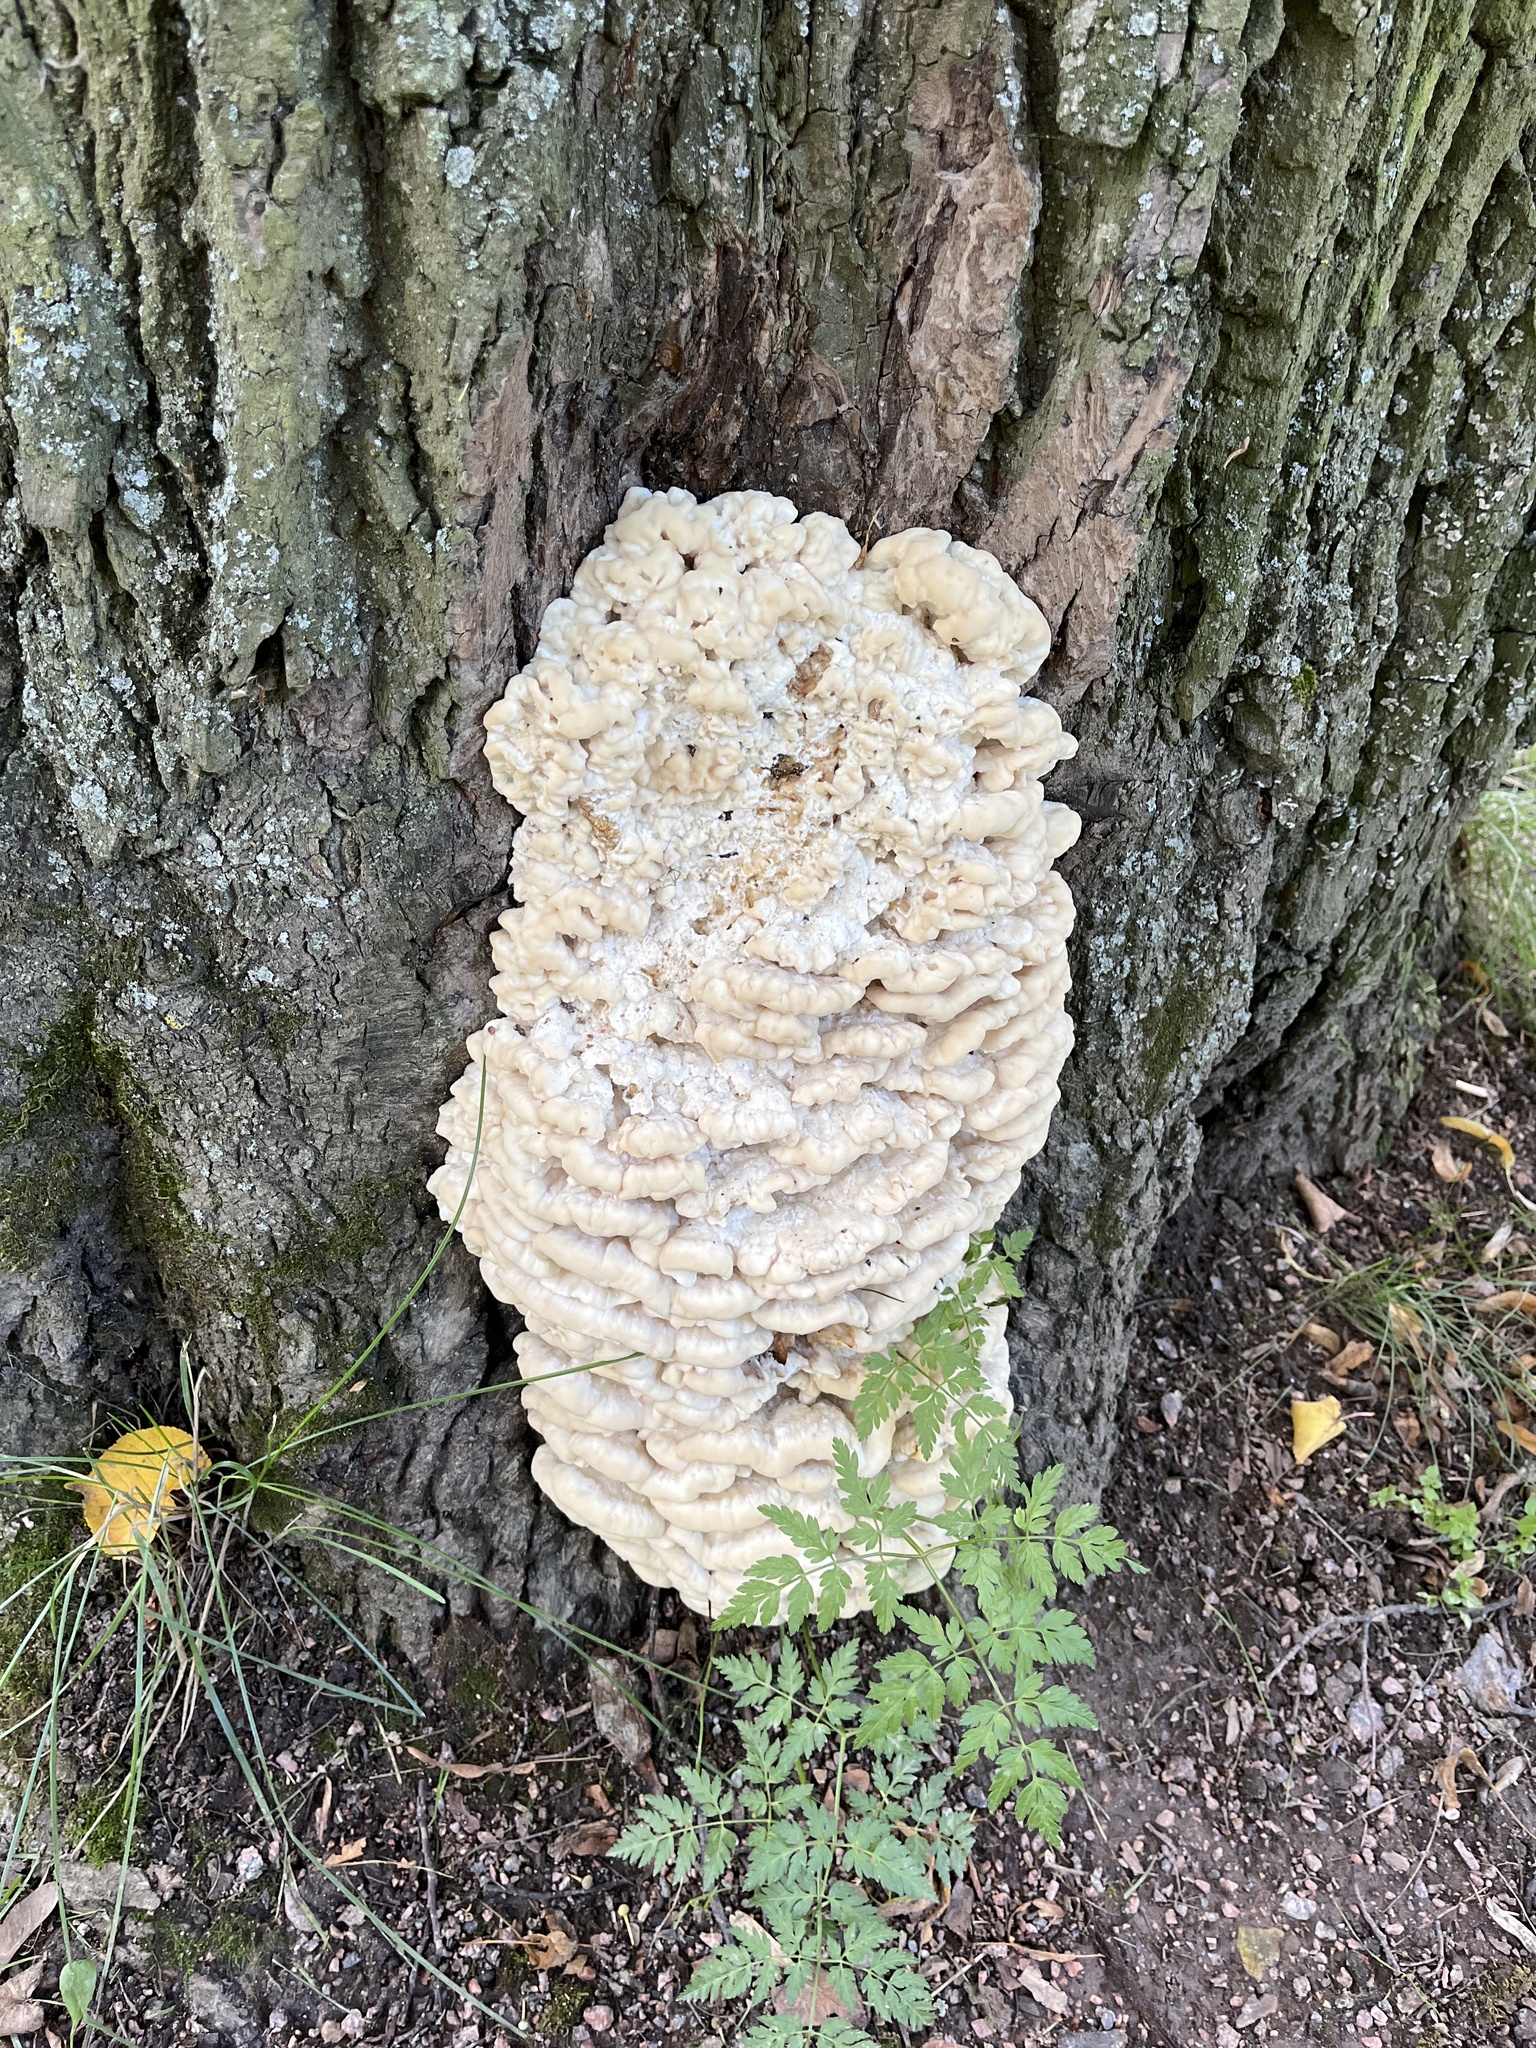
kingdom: Fungi
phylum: Basidiomycota
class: Agaricomycetes
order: Polyporales
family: Meruliaceae
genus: Climacodon
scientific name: Climacodon septentrionalis
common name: Northern tooth
